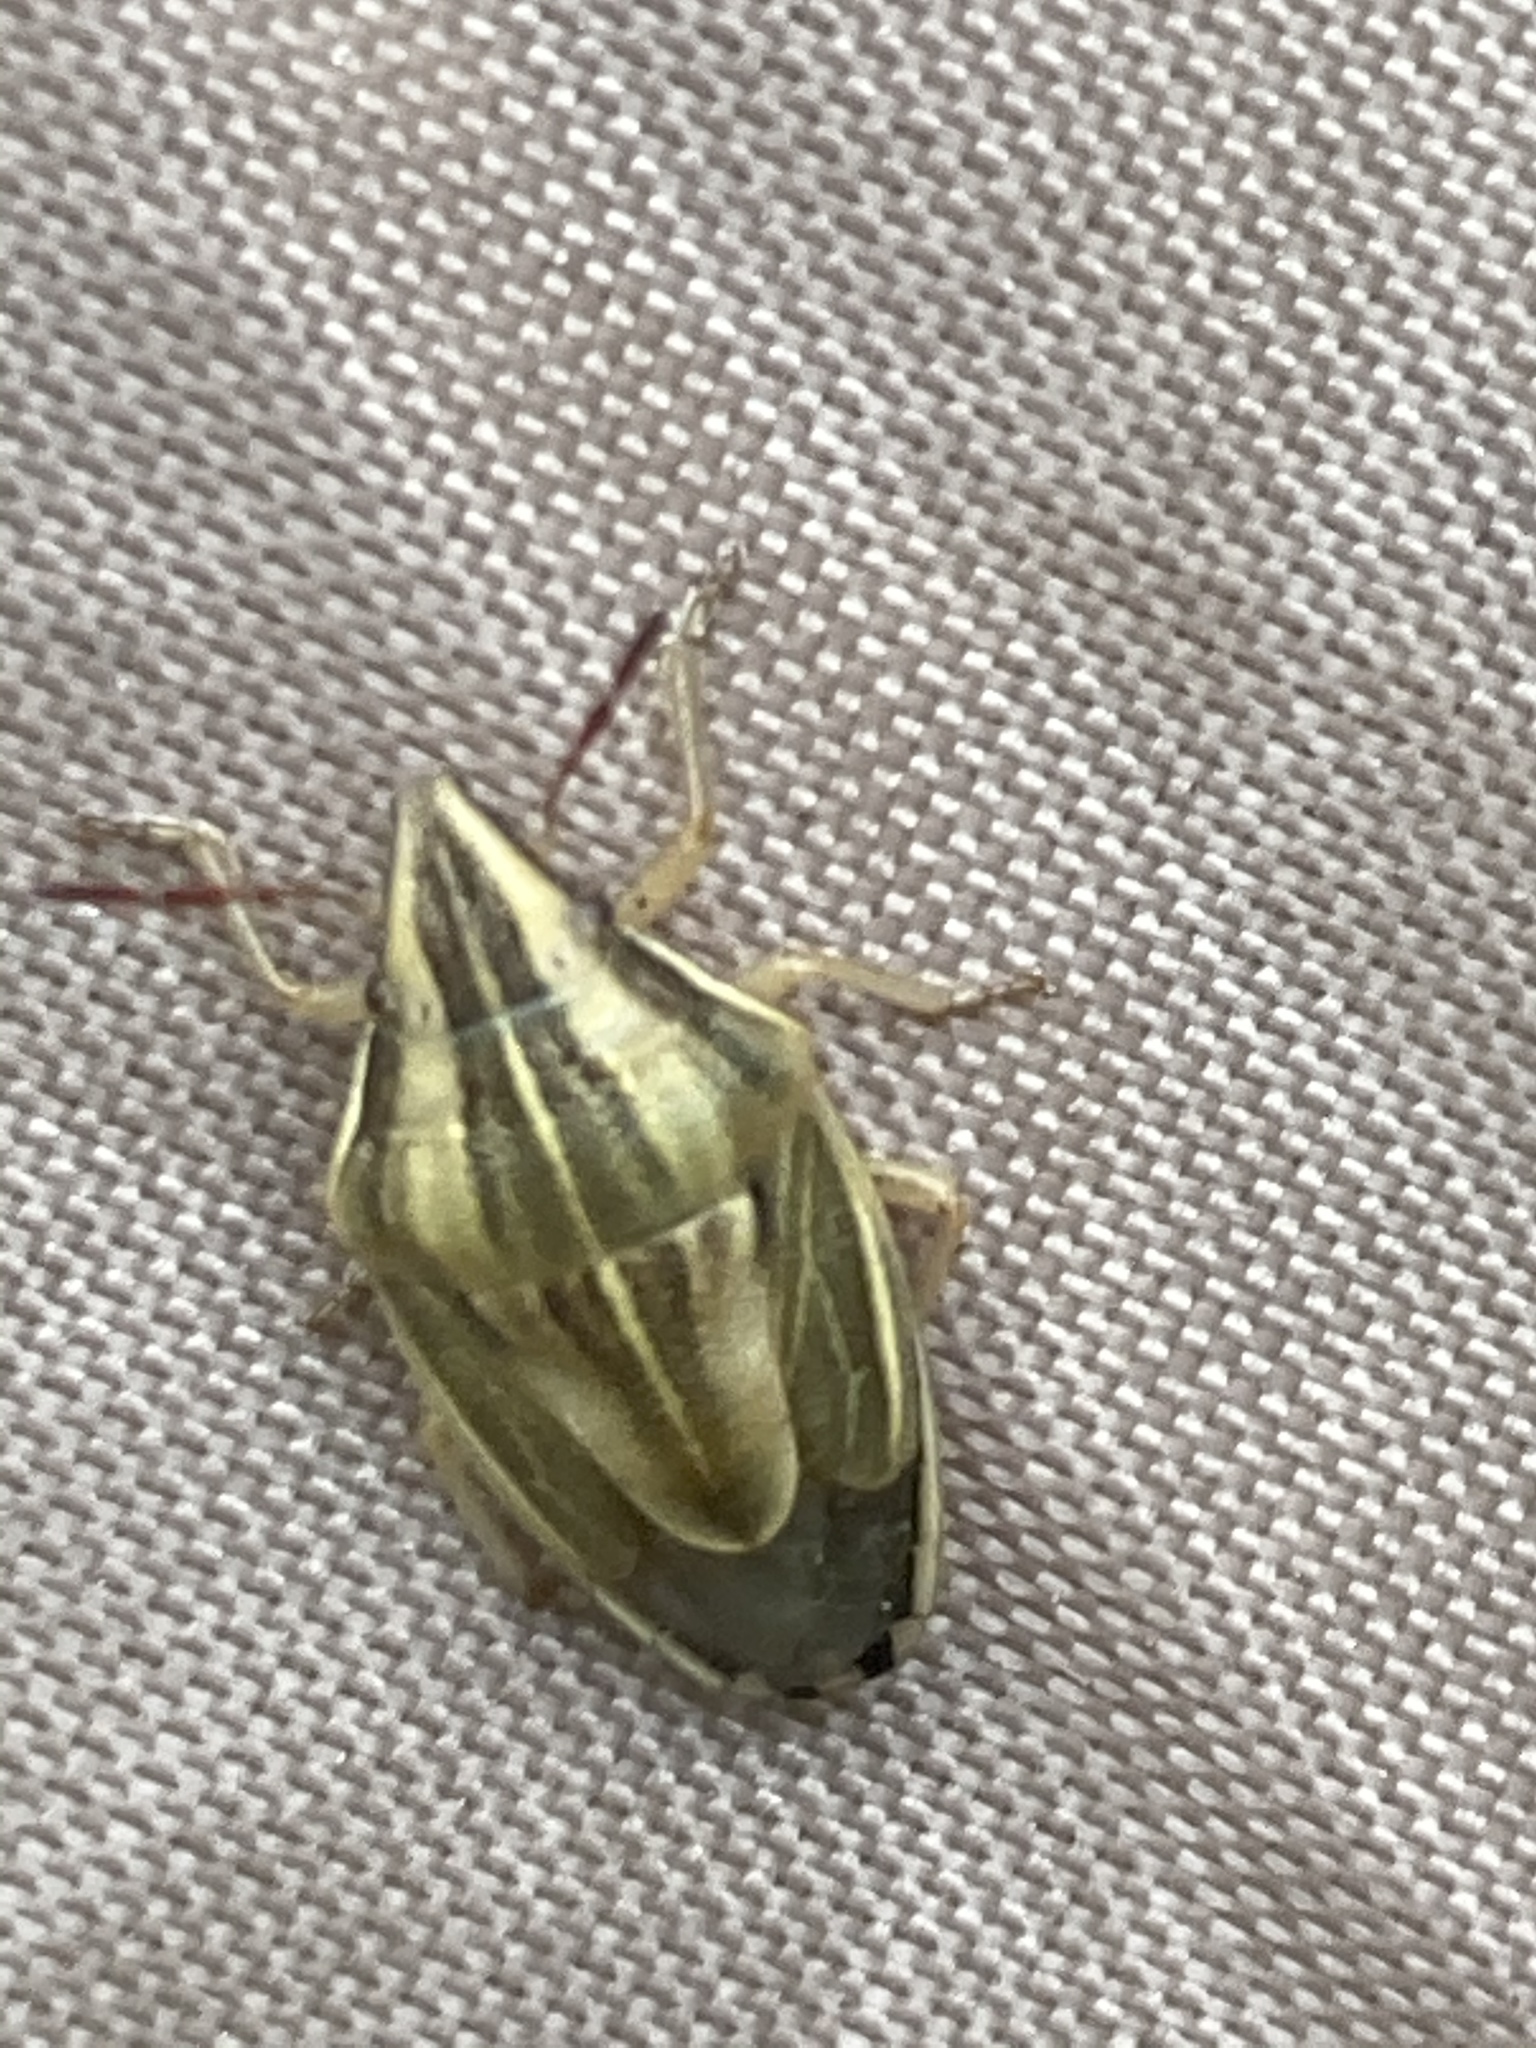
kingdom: Animalia
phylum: Arthropoda
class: Insecta
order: Hemiptera
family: Pentatomidae
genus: Aelia
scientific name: Aelia acuminata
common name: Bishop's mitre
